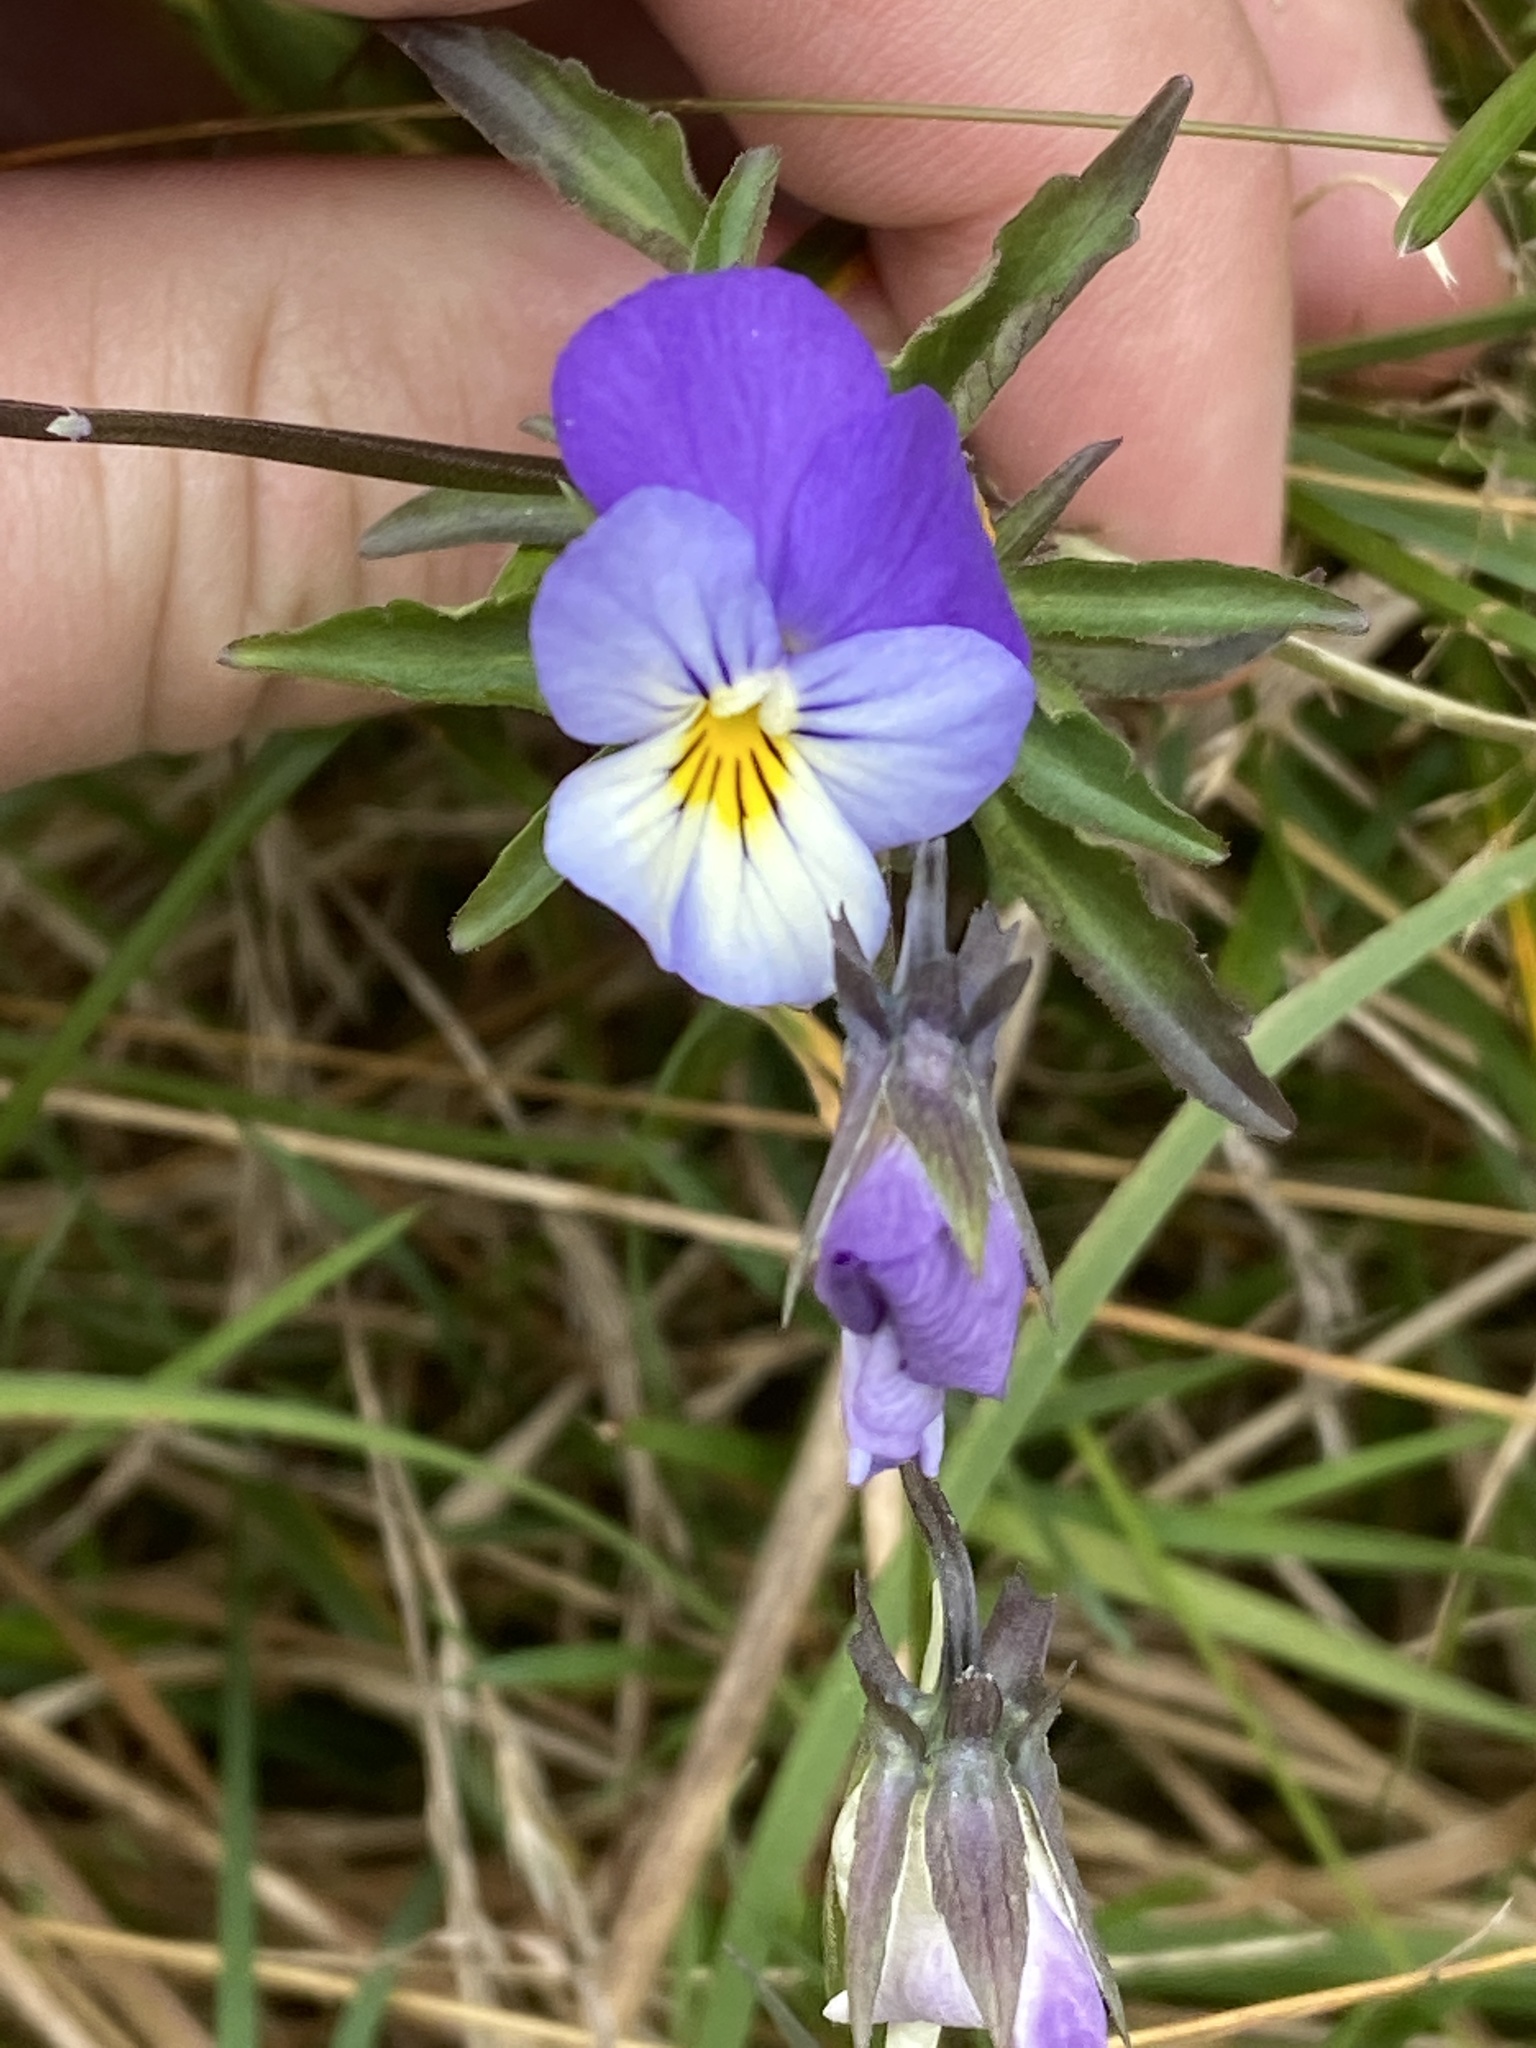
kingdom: Plantae
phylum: Tracheophyta
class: Magnoliopsida
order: Malpighiales
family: Violaceae
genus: Viola
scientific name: Viola tricolor
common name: Pansy
